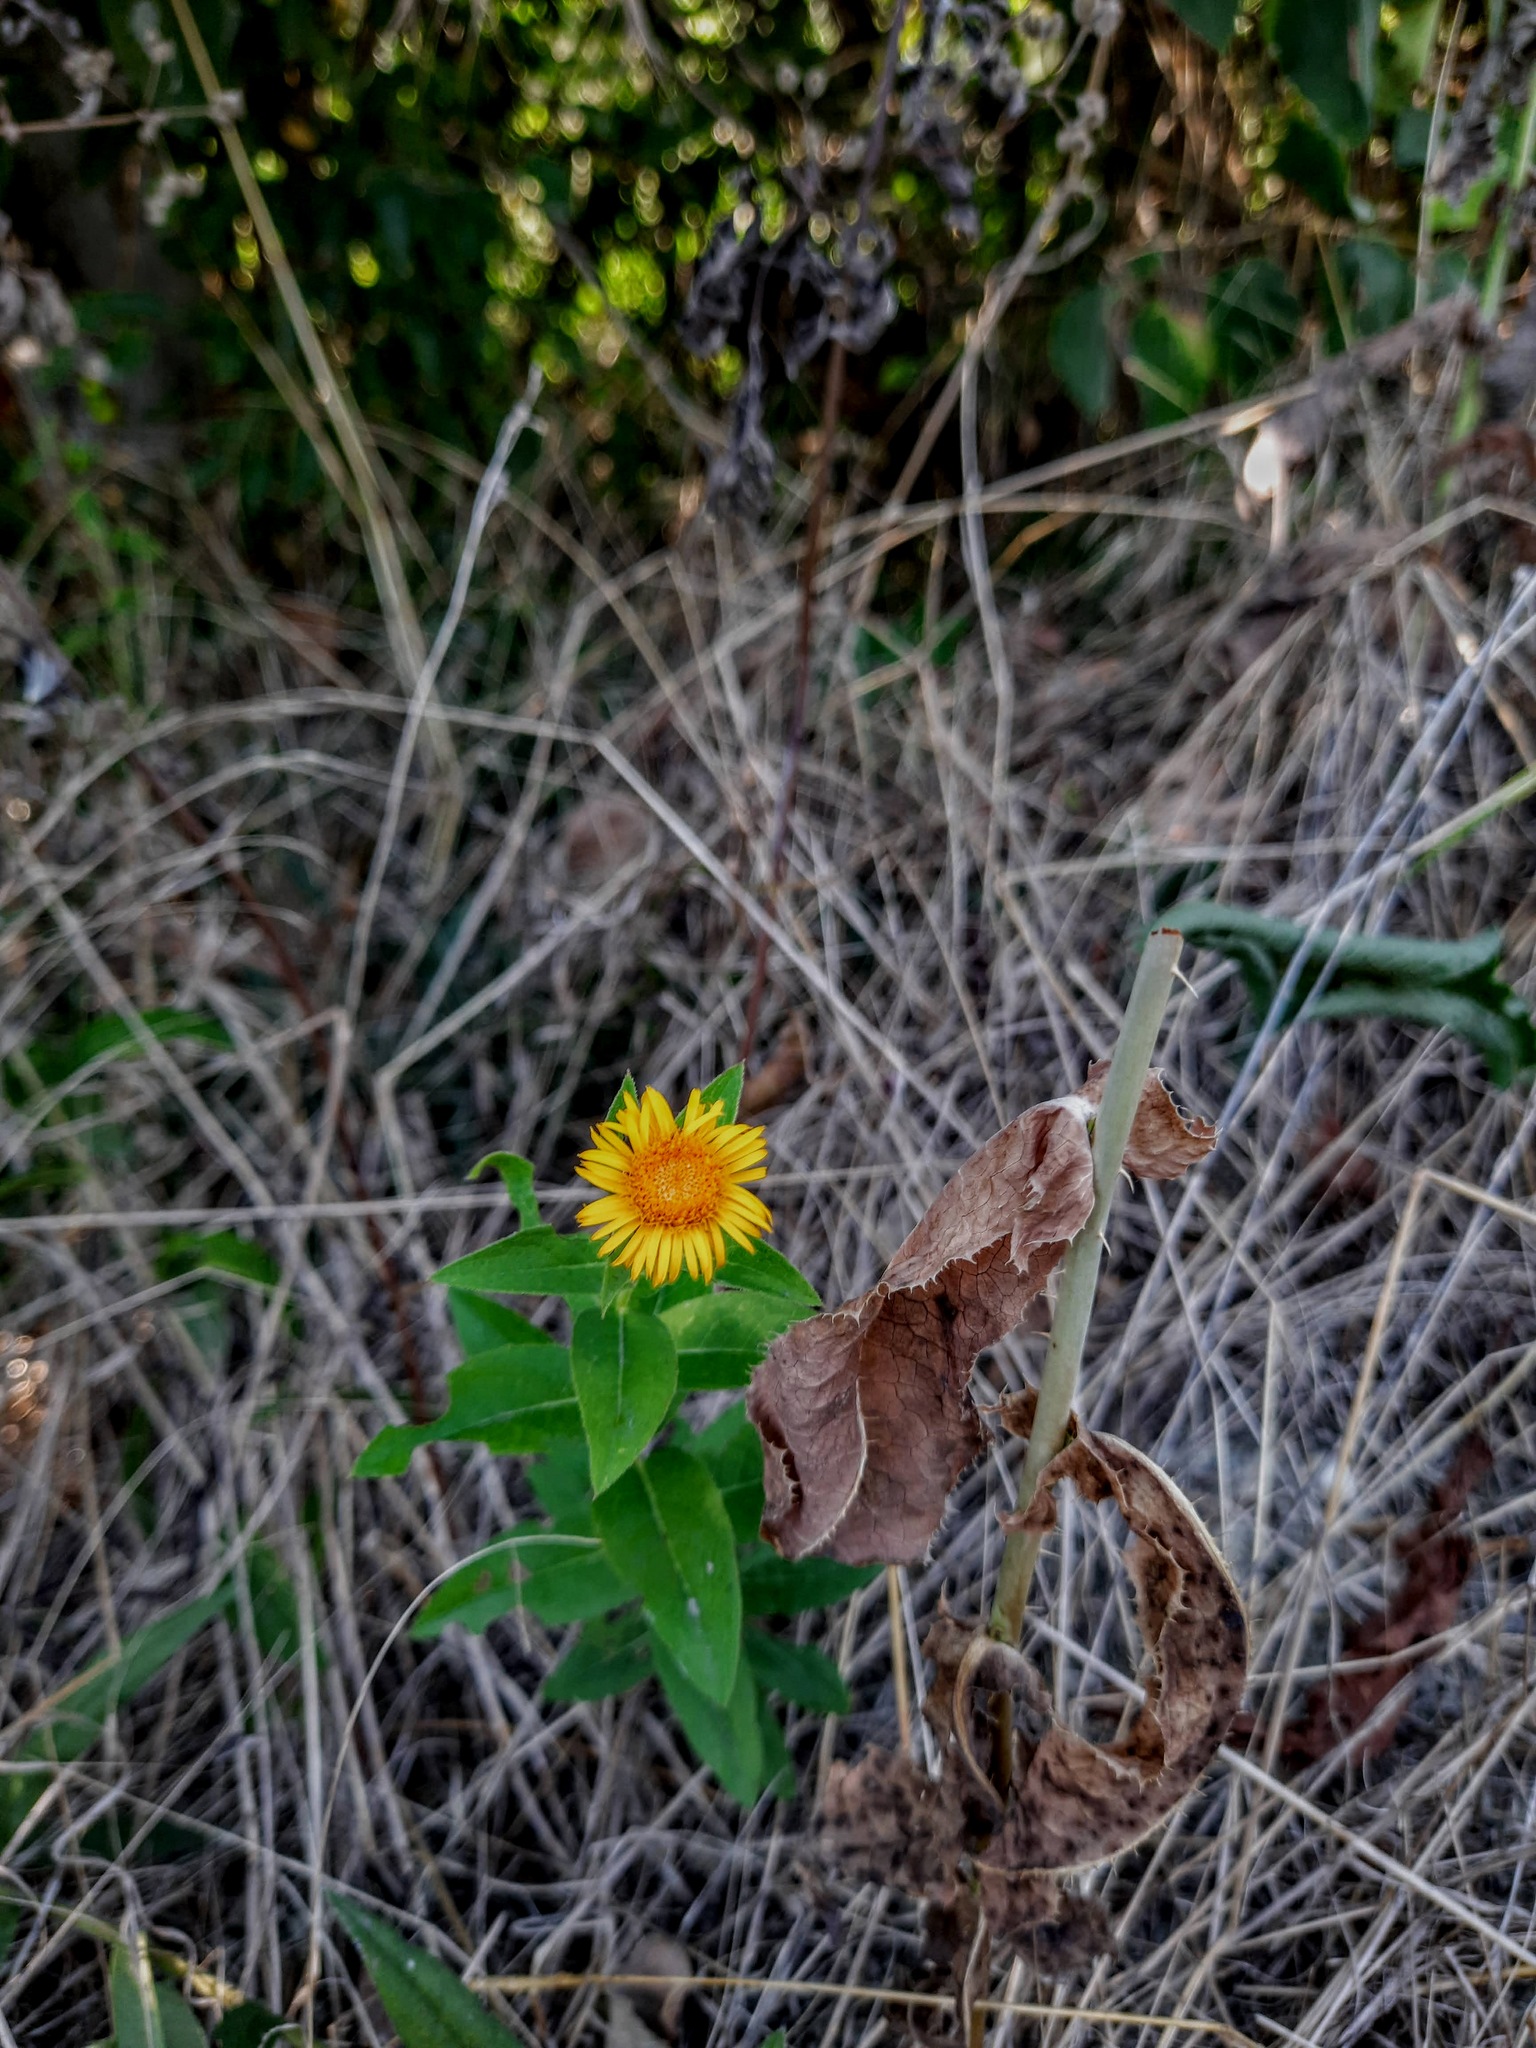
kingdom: Plantae
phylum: Tracheophyta
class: Magnoliopsida
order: Asterales
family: Asteraceae
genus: Pentanema
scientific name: Pentanema asperum
